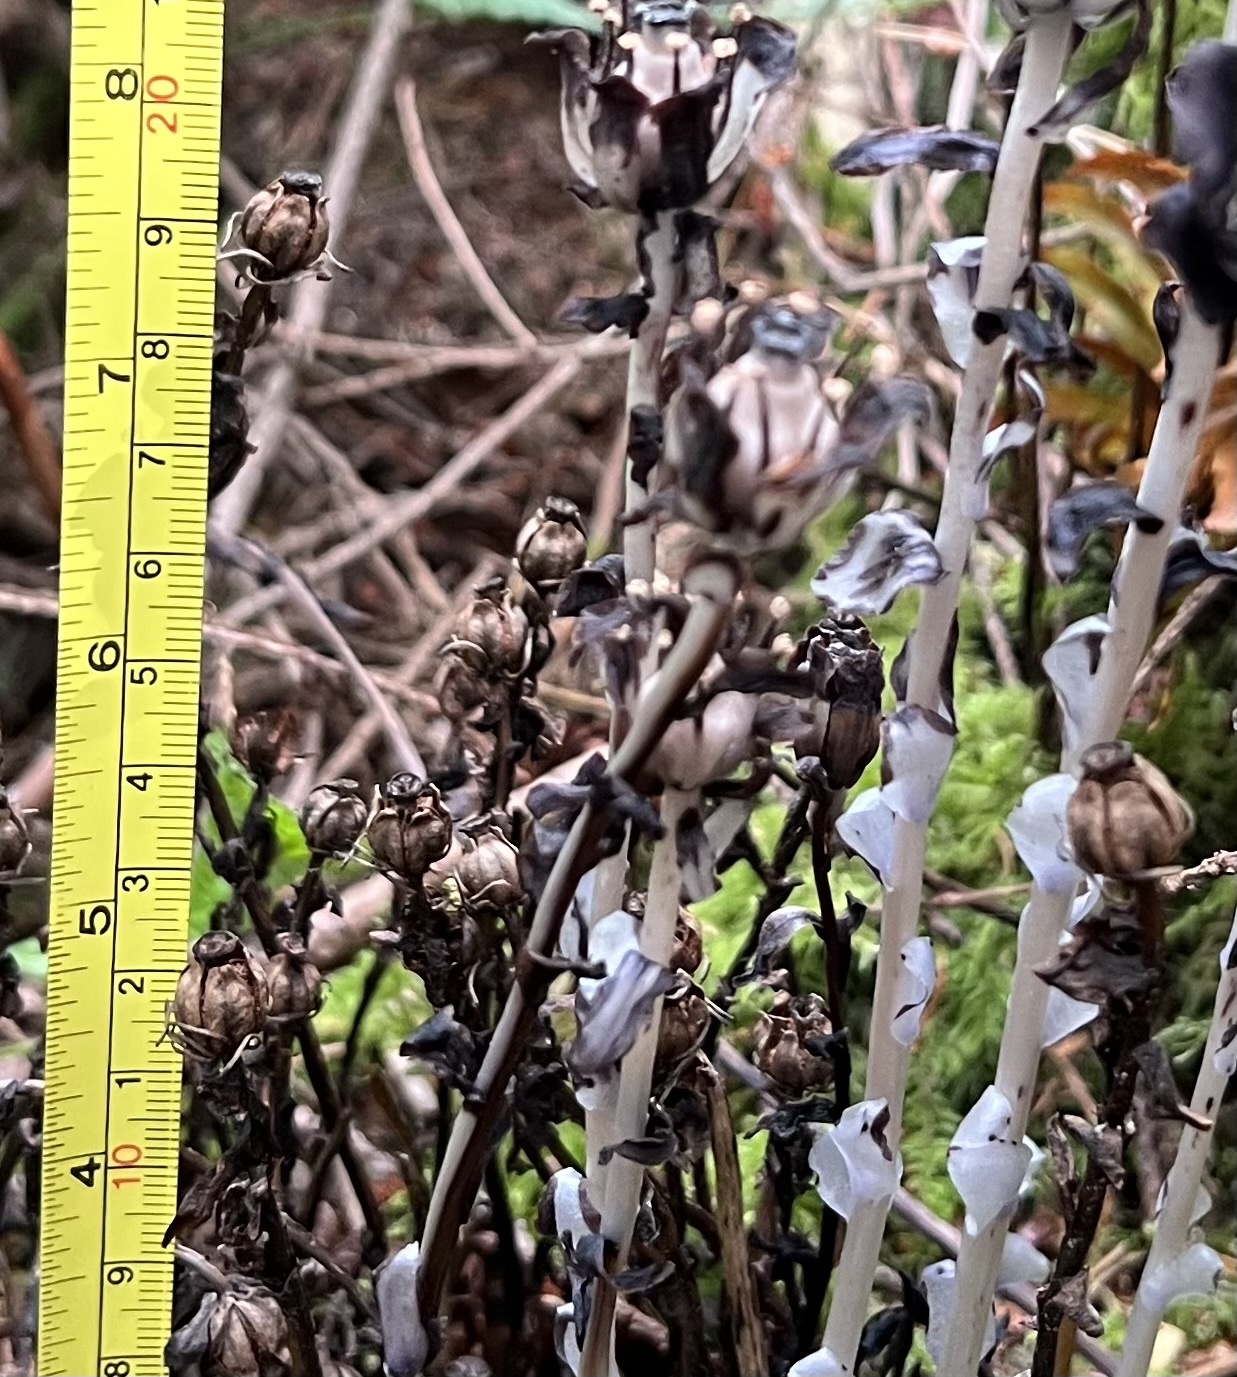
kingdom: Plantae
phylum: Tracheophyta
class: Magnoliopsida
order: Ericales
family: Ericaceae
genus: Monotropa
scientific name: Monotropa uniflora
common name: Convulsion root
